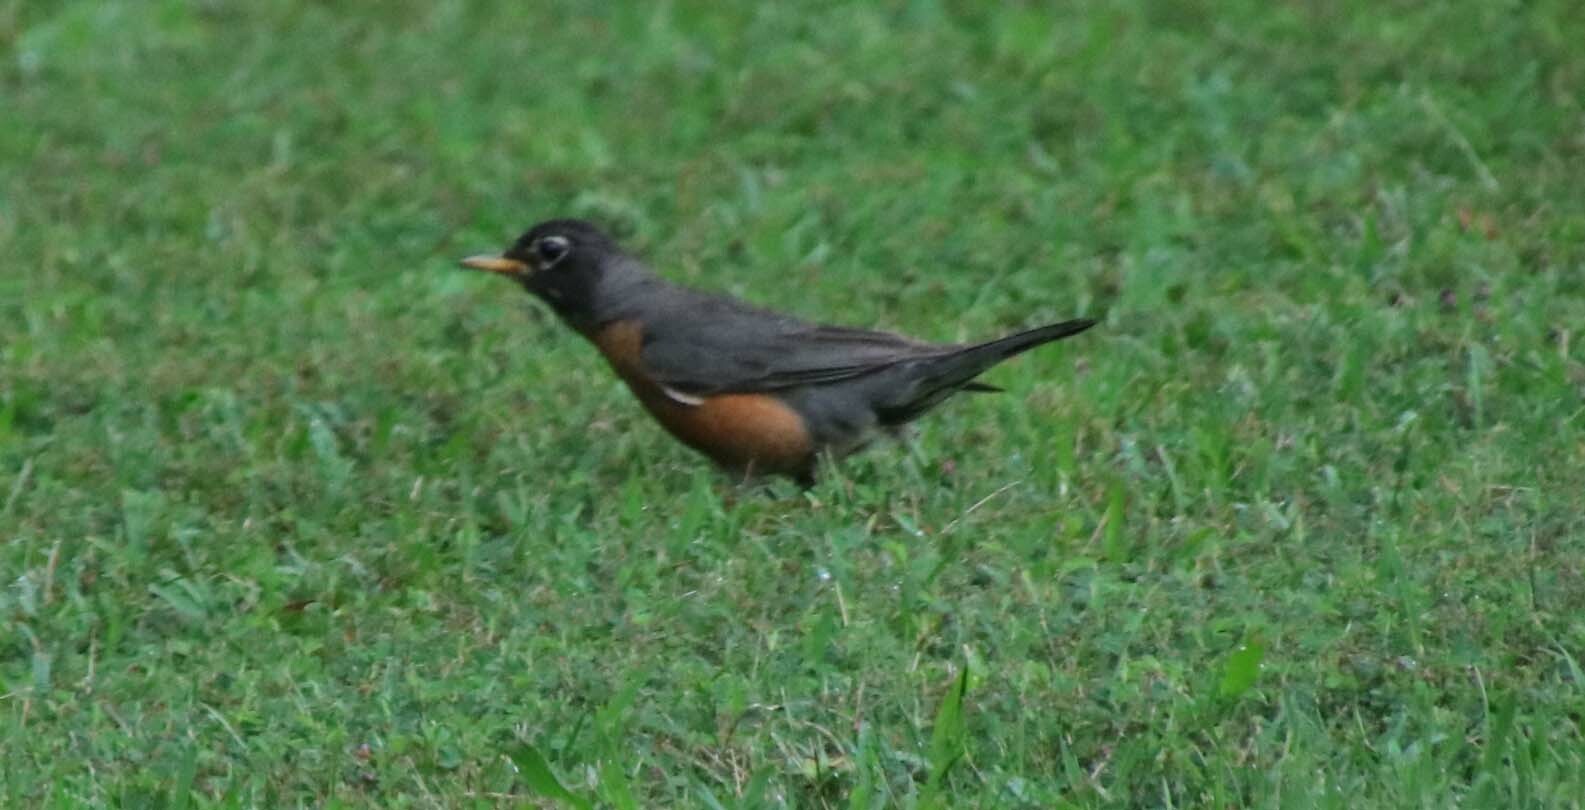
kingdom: Animalia
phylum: Chordata
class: Aves
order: Passeriformes
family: Turdidae
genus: Turdus
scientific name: Turdus migratorius
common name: American robin
